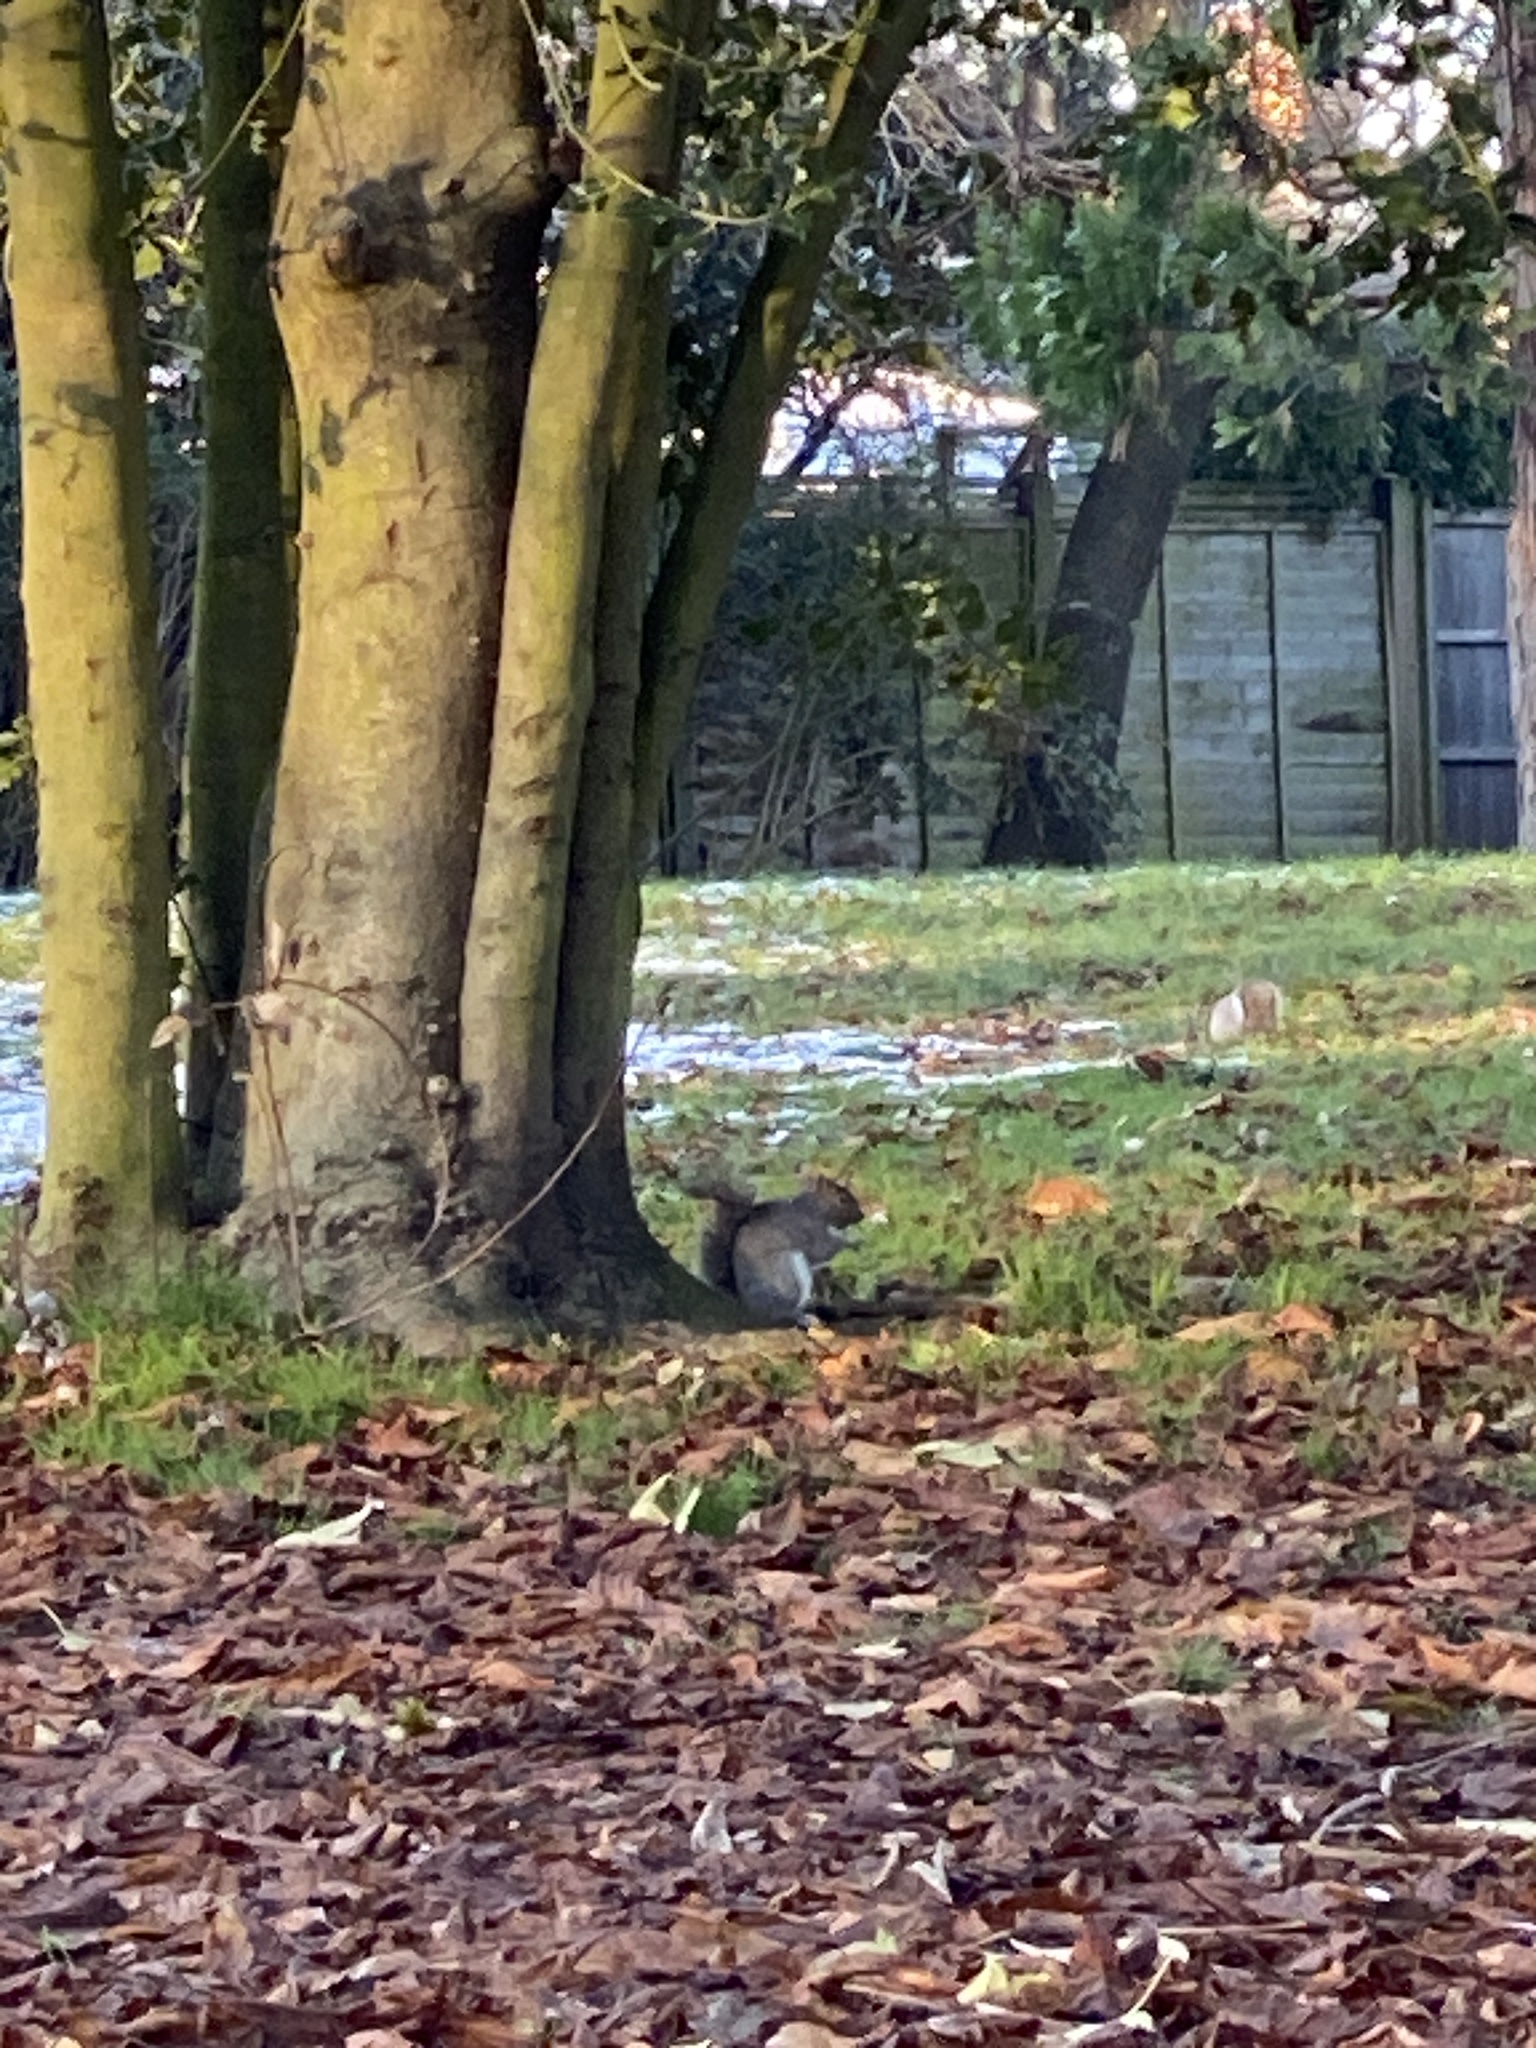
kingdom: Animalia
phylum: Chordata
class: Mammalia
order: Rodentia
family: Sciuridae
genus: Sciurus
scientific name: Sciurus carolinensis
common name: Eastern gray squirrel
